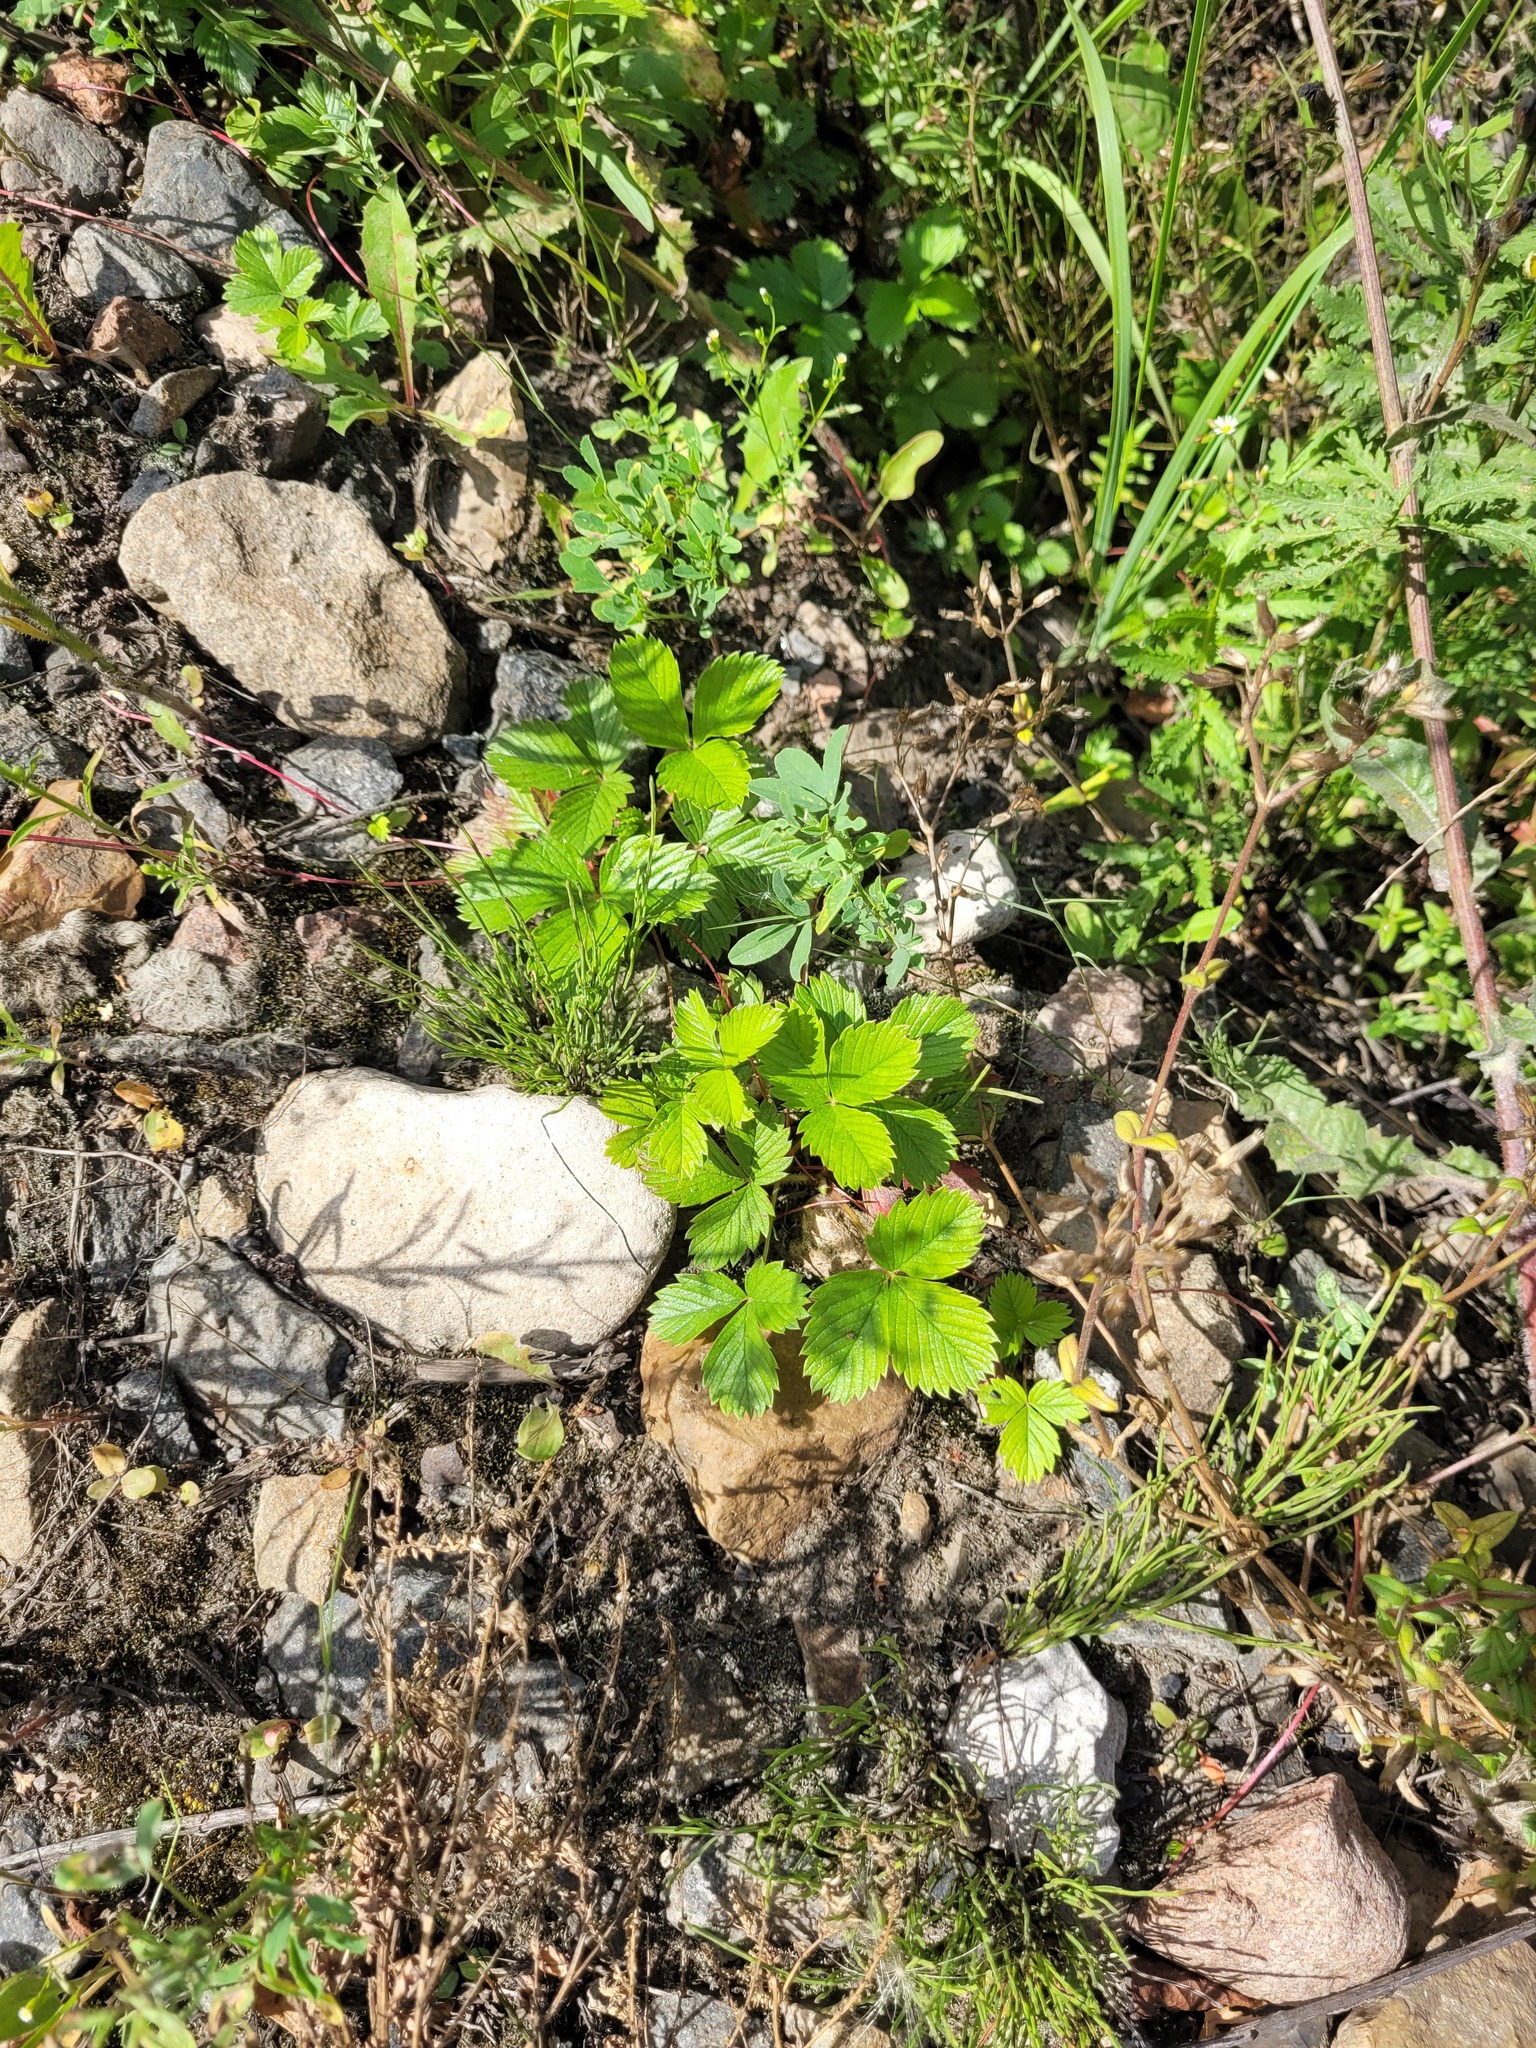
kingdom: Plantae
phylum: Tracheophyta
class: Magnoliopsida
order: Rosales
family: Rosaceae
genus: Fragaria
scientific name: Fragaria viridis
